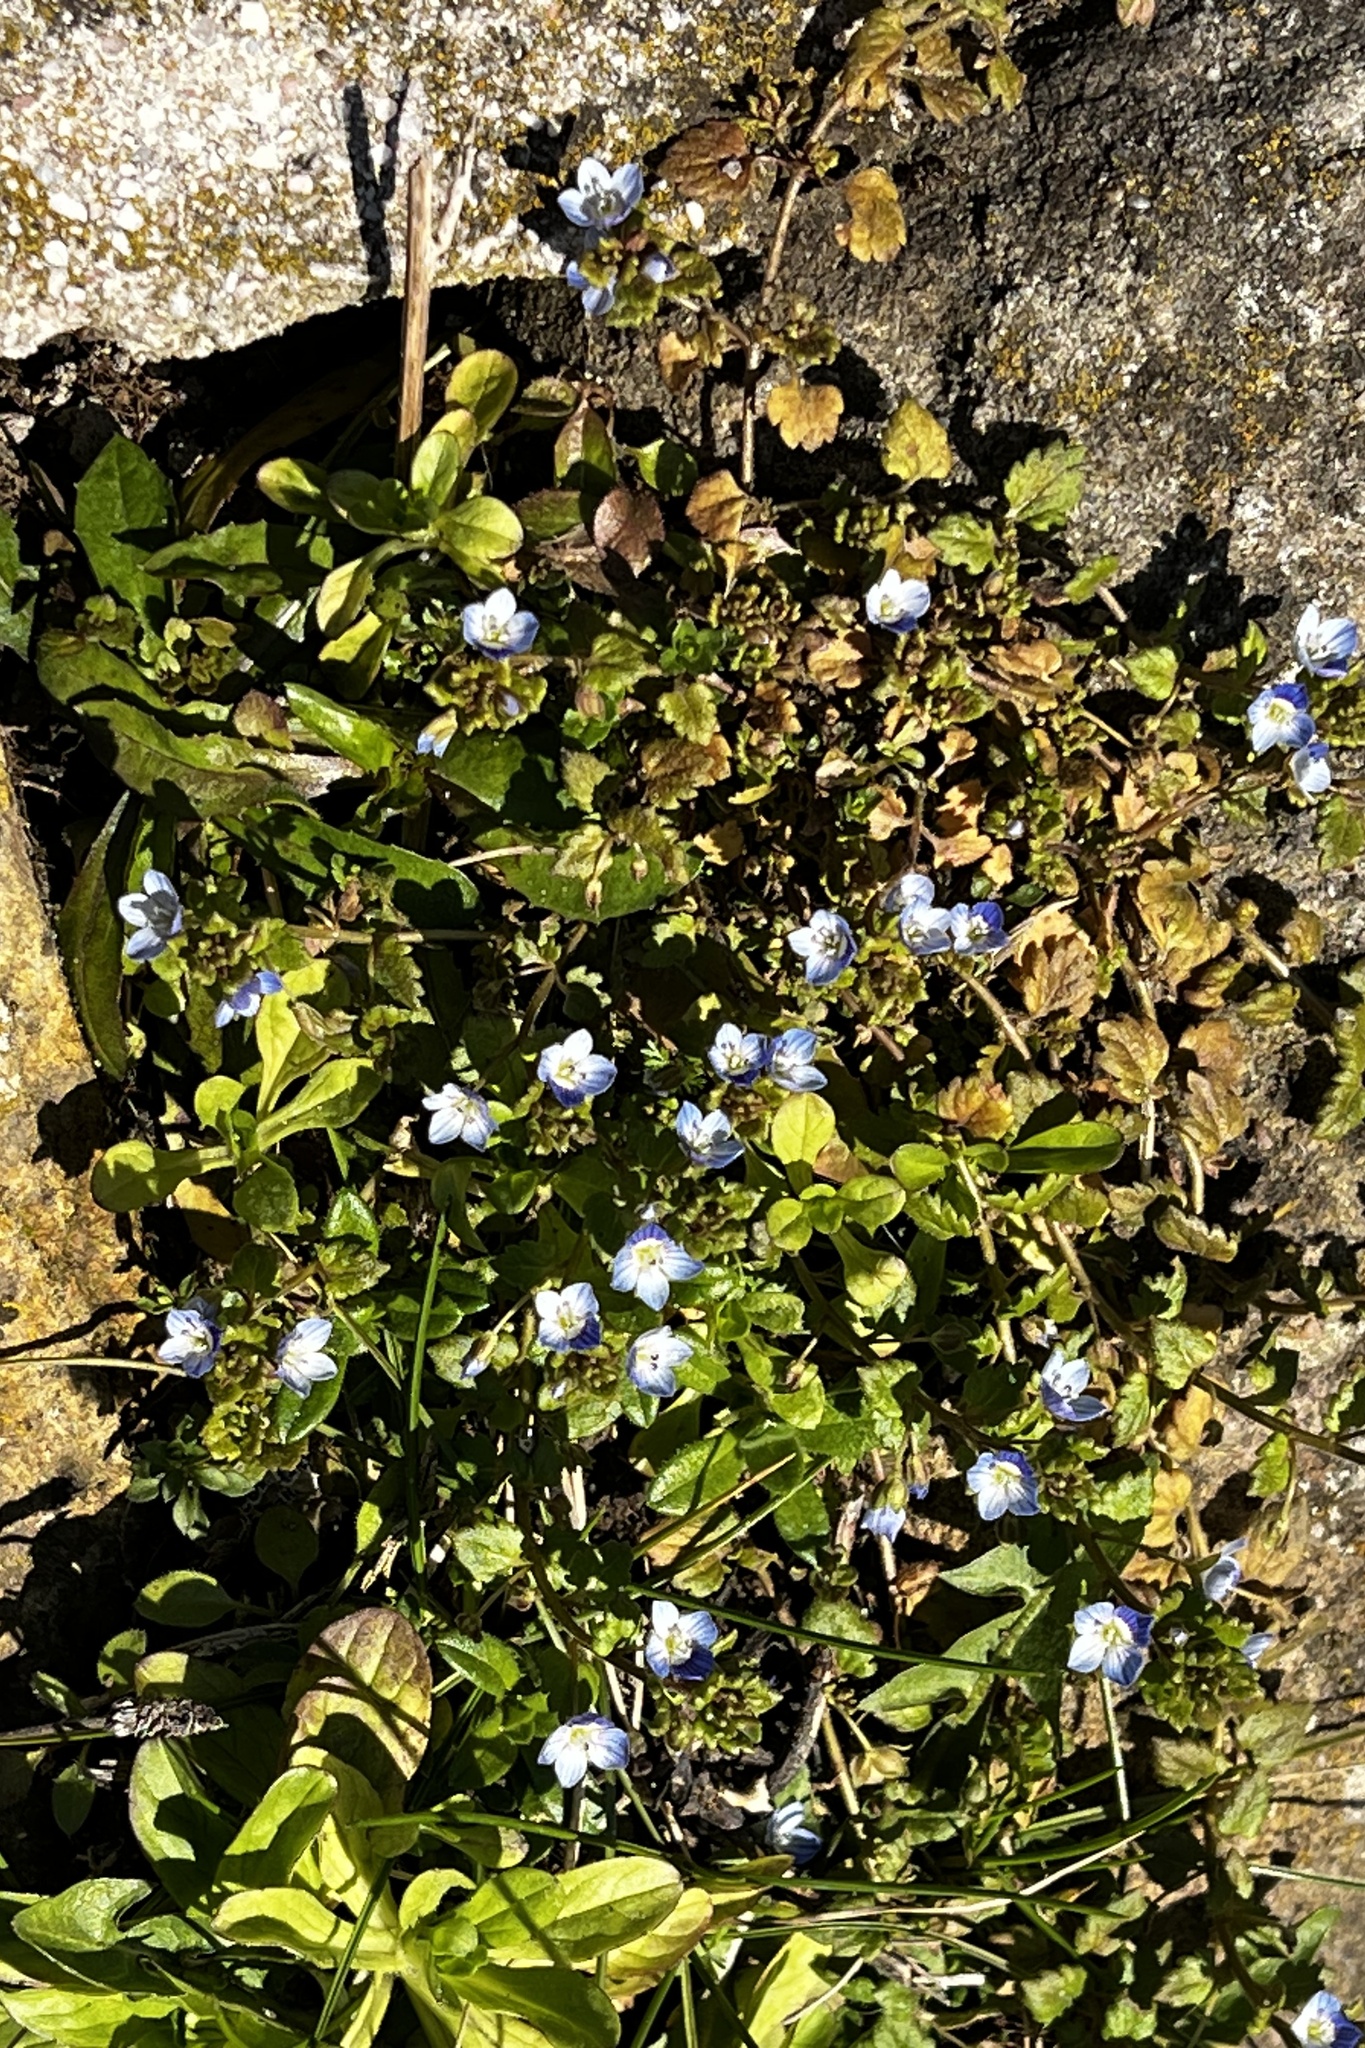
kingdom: Plantae
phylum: Tracheophyta
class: Magnoliopsida
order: Lamiales
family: Plantaginaceae
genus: Veronica
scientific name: Veronica persica
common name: Common field-speedwell
